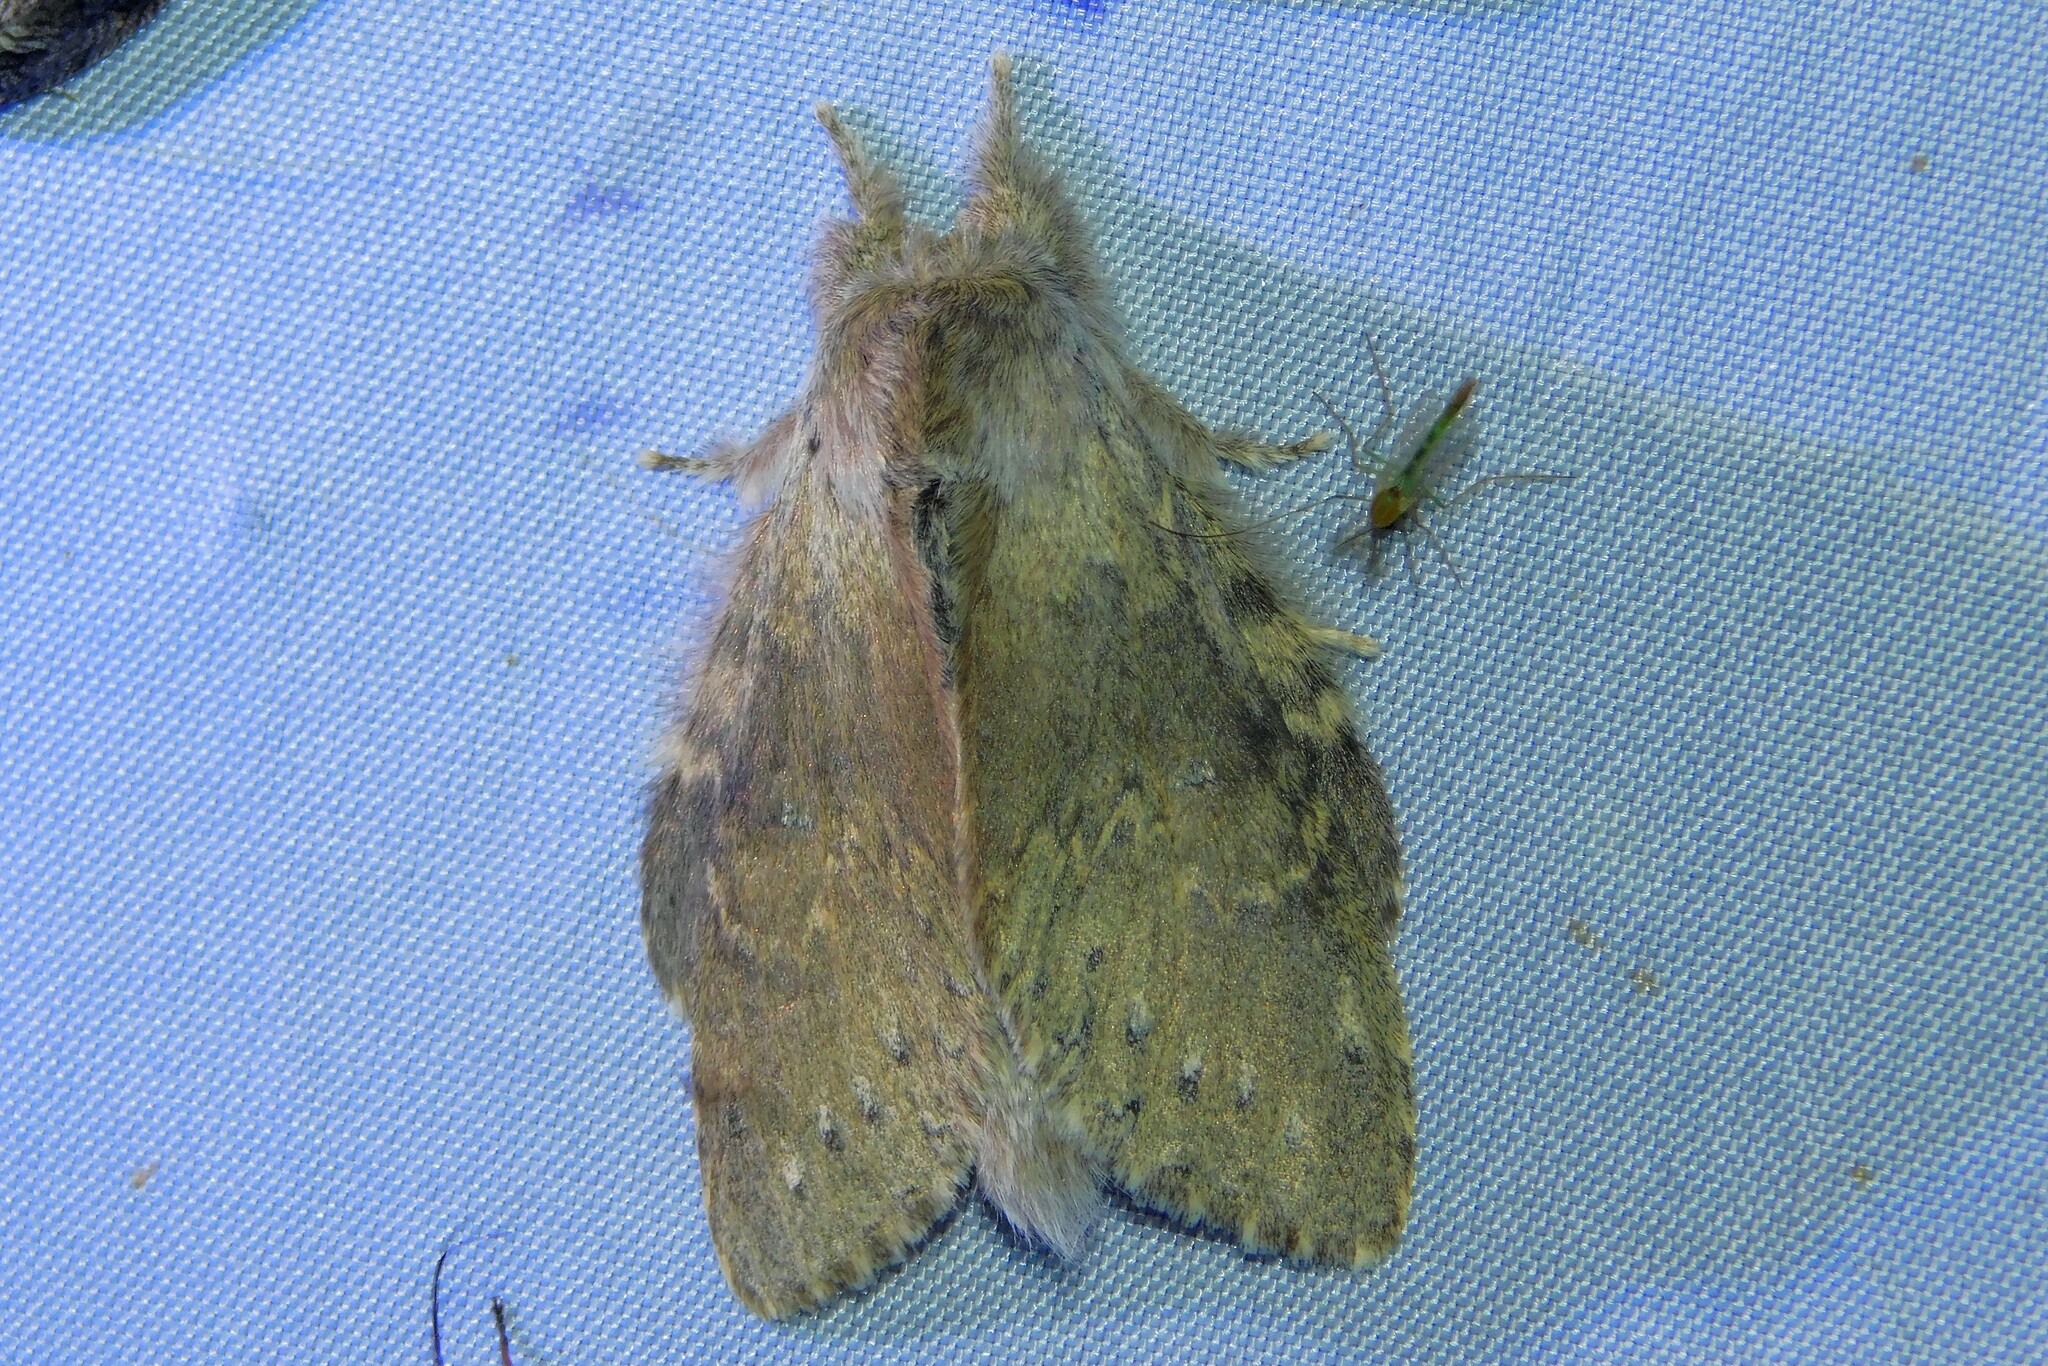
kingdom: Animalia
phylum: Arthropoda
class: Insecta
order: Lepidoptera
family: Notodontidae
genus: Stauropus
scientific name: Stauropus fagi
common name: Lobster moth
